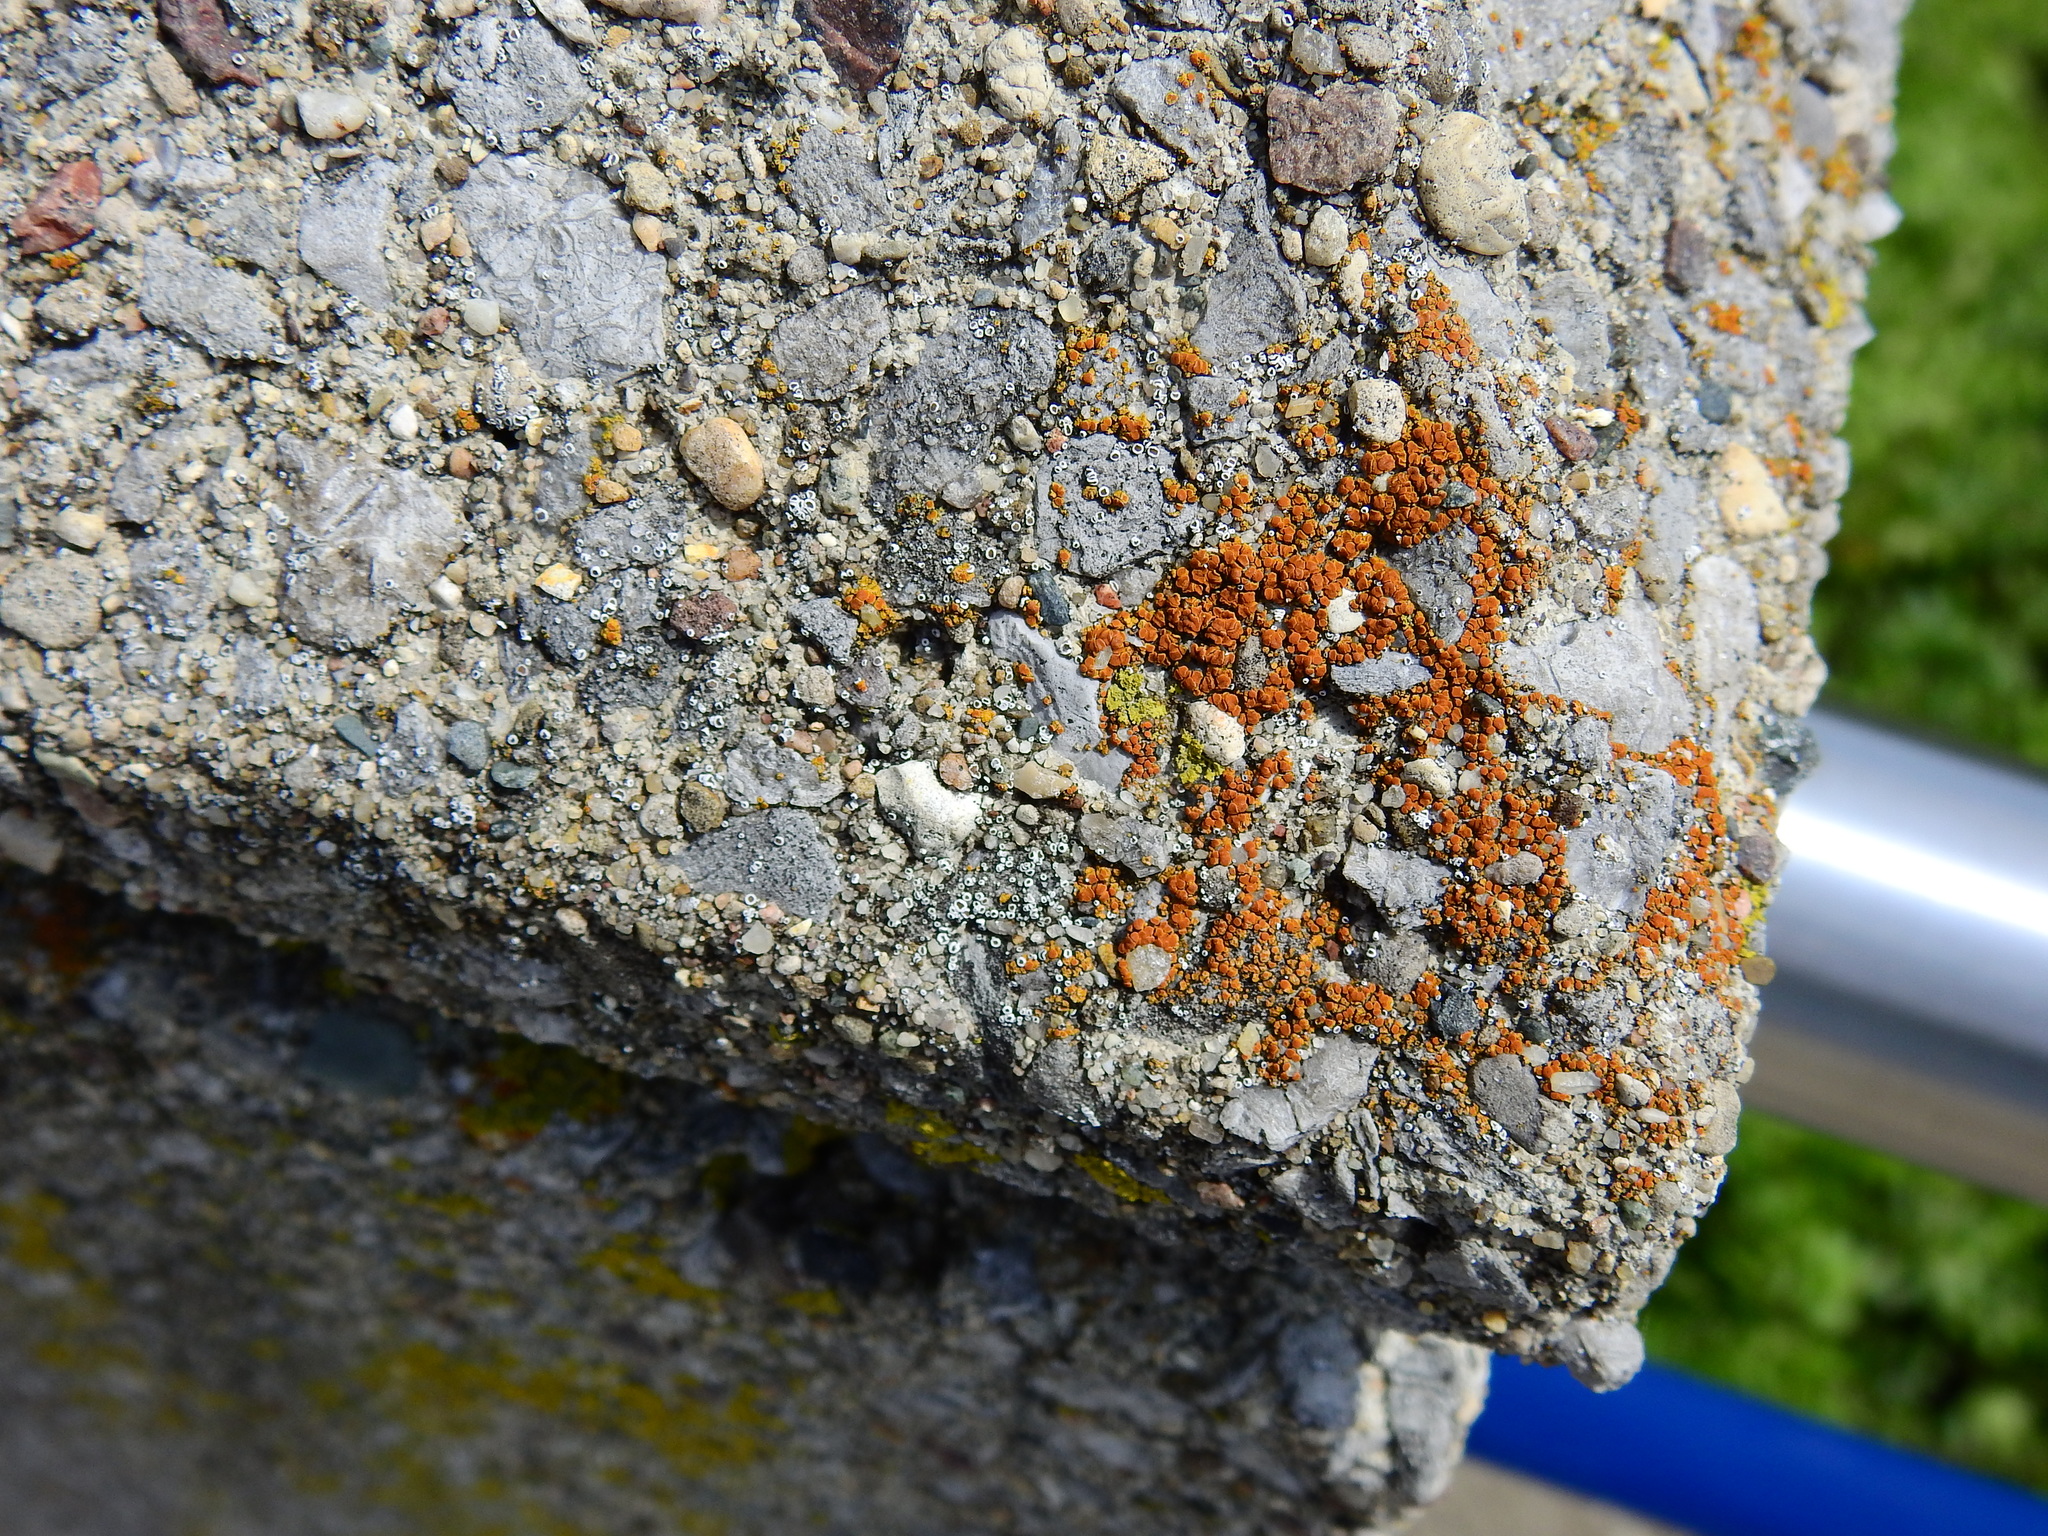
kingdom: Fungi
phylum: Ascomycota
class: Lecanoromycetes
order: Teloschistales
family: Teloschistaceae
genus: Xanthocarpia
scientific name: Xanthocarpia feracissima
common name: Sidewalk firedot
